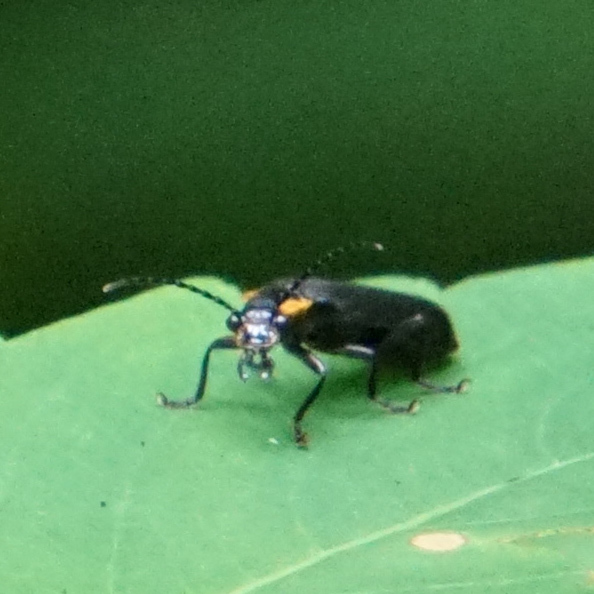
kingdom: Animalia
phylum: Arthropoda
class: Insecta
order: Coleoptera
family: Cantharidae
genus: Podabrus
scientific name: Podabrus rugosulus
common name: Wrinkled soldier beetle
